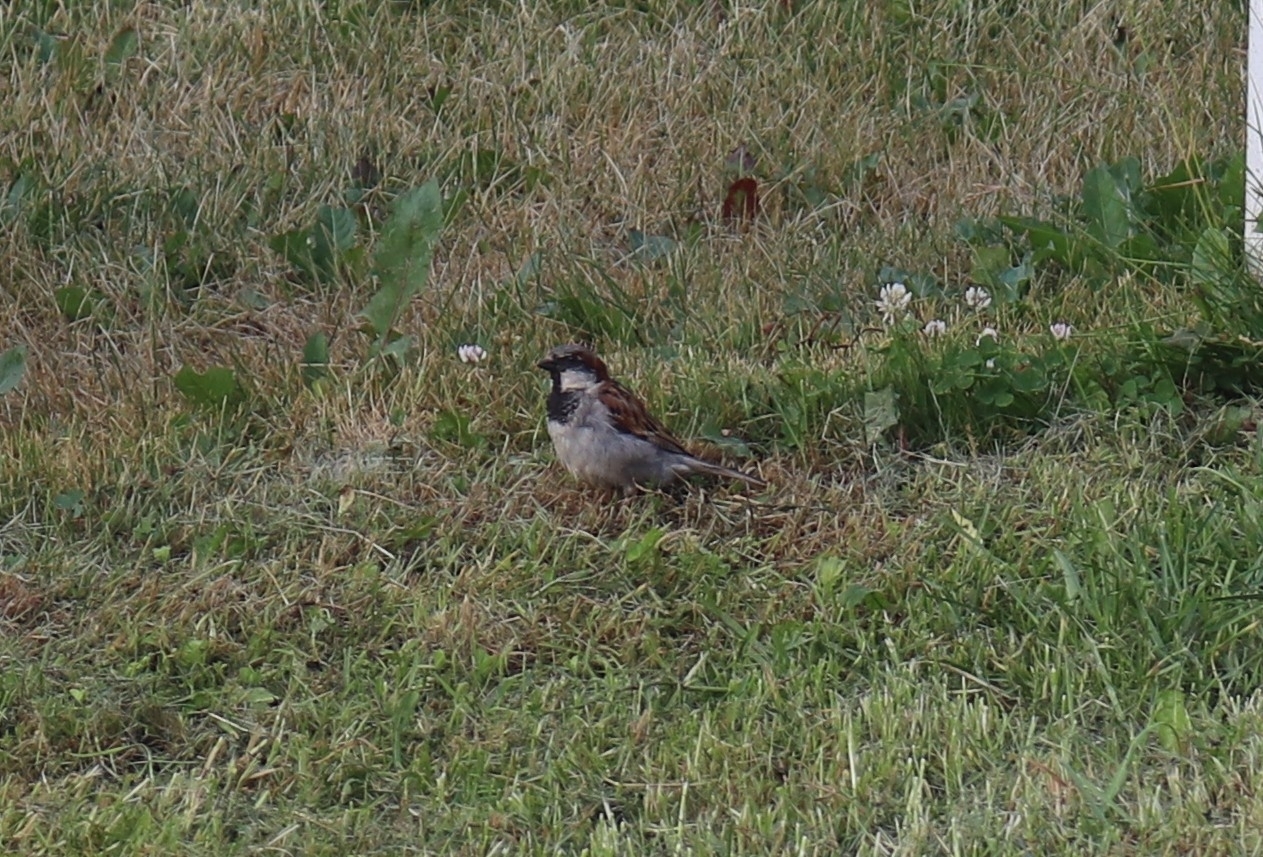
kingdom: Animalia
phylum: Chordata
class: Aves
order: Passeriformes
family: Passeridae
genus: Passer
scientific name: Passer domesticus
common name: House sparrow
